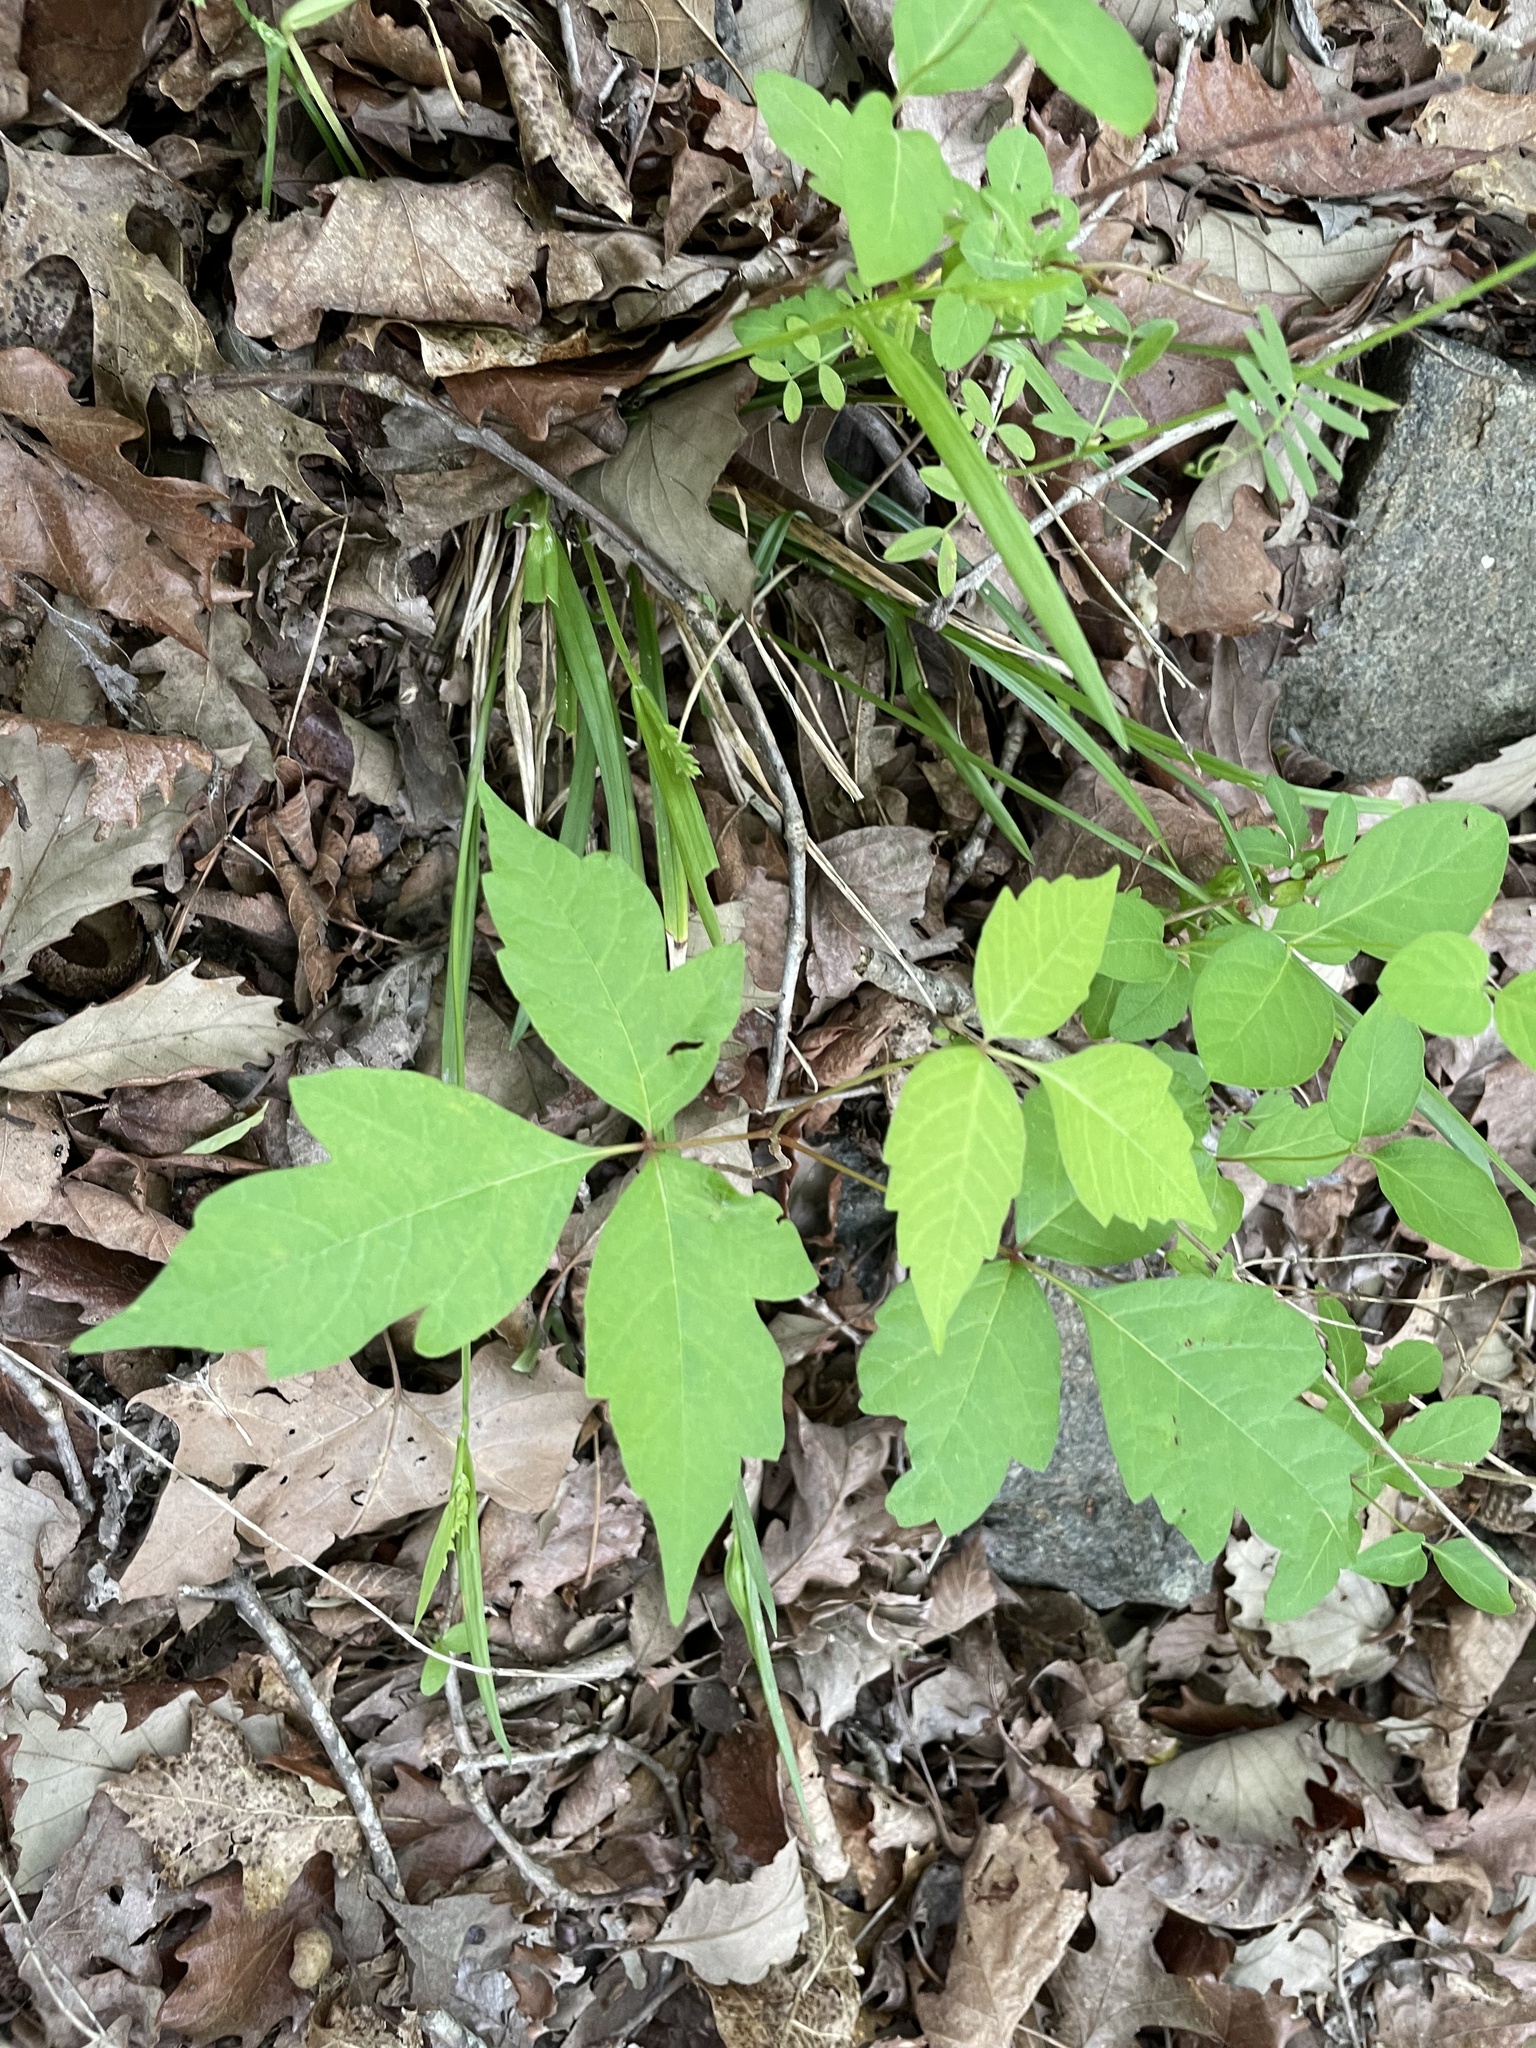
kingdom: Plantae
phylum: Tracheophyta
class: Liliopsida
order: Poales
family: Cyperaceae
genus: Carex
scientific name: Carex kraliana
